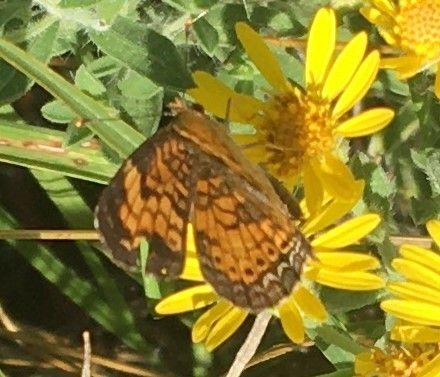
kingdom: Animalia
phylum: Arthropoda
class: Insecta
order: Lepidoptera
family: Nymphalidae
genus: Phyciodes
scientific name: Phyciodes tharos
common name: Pearl crescent
